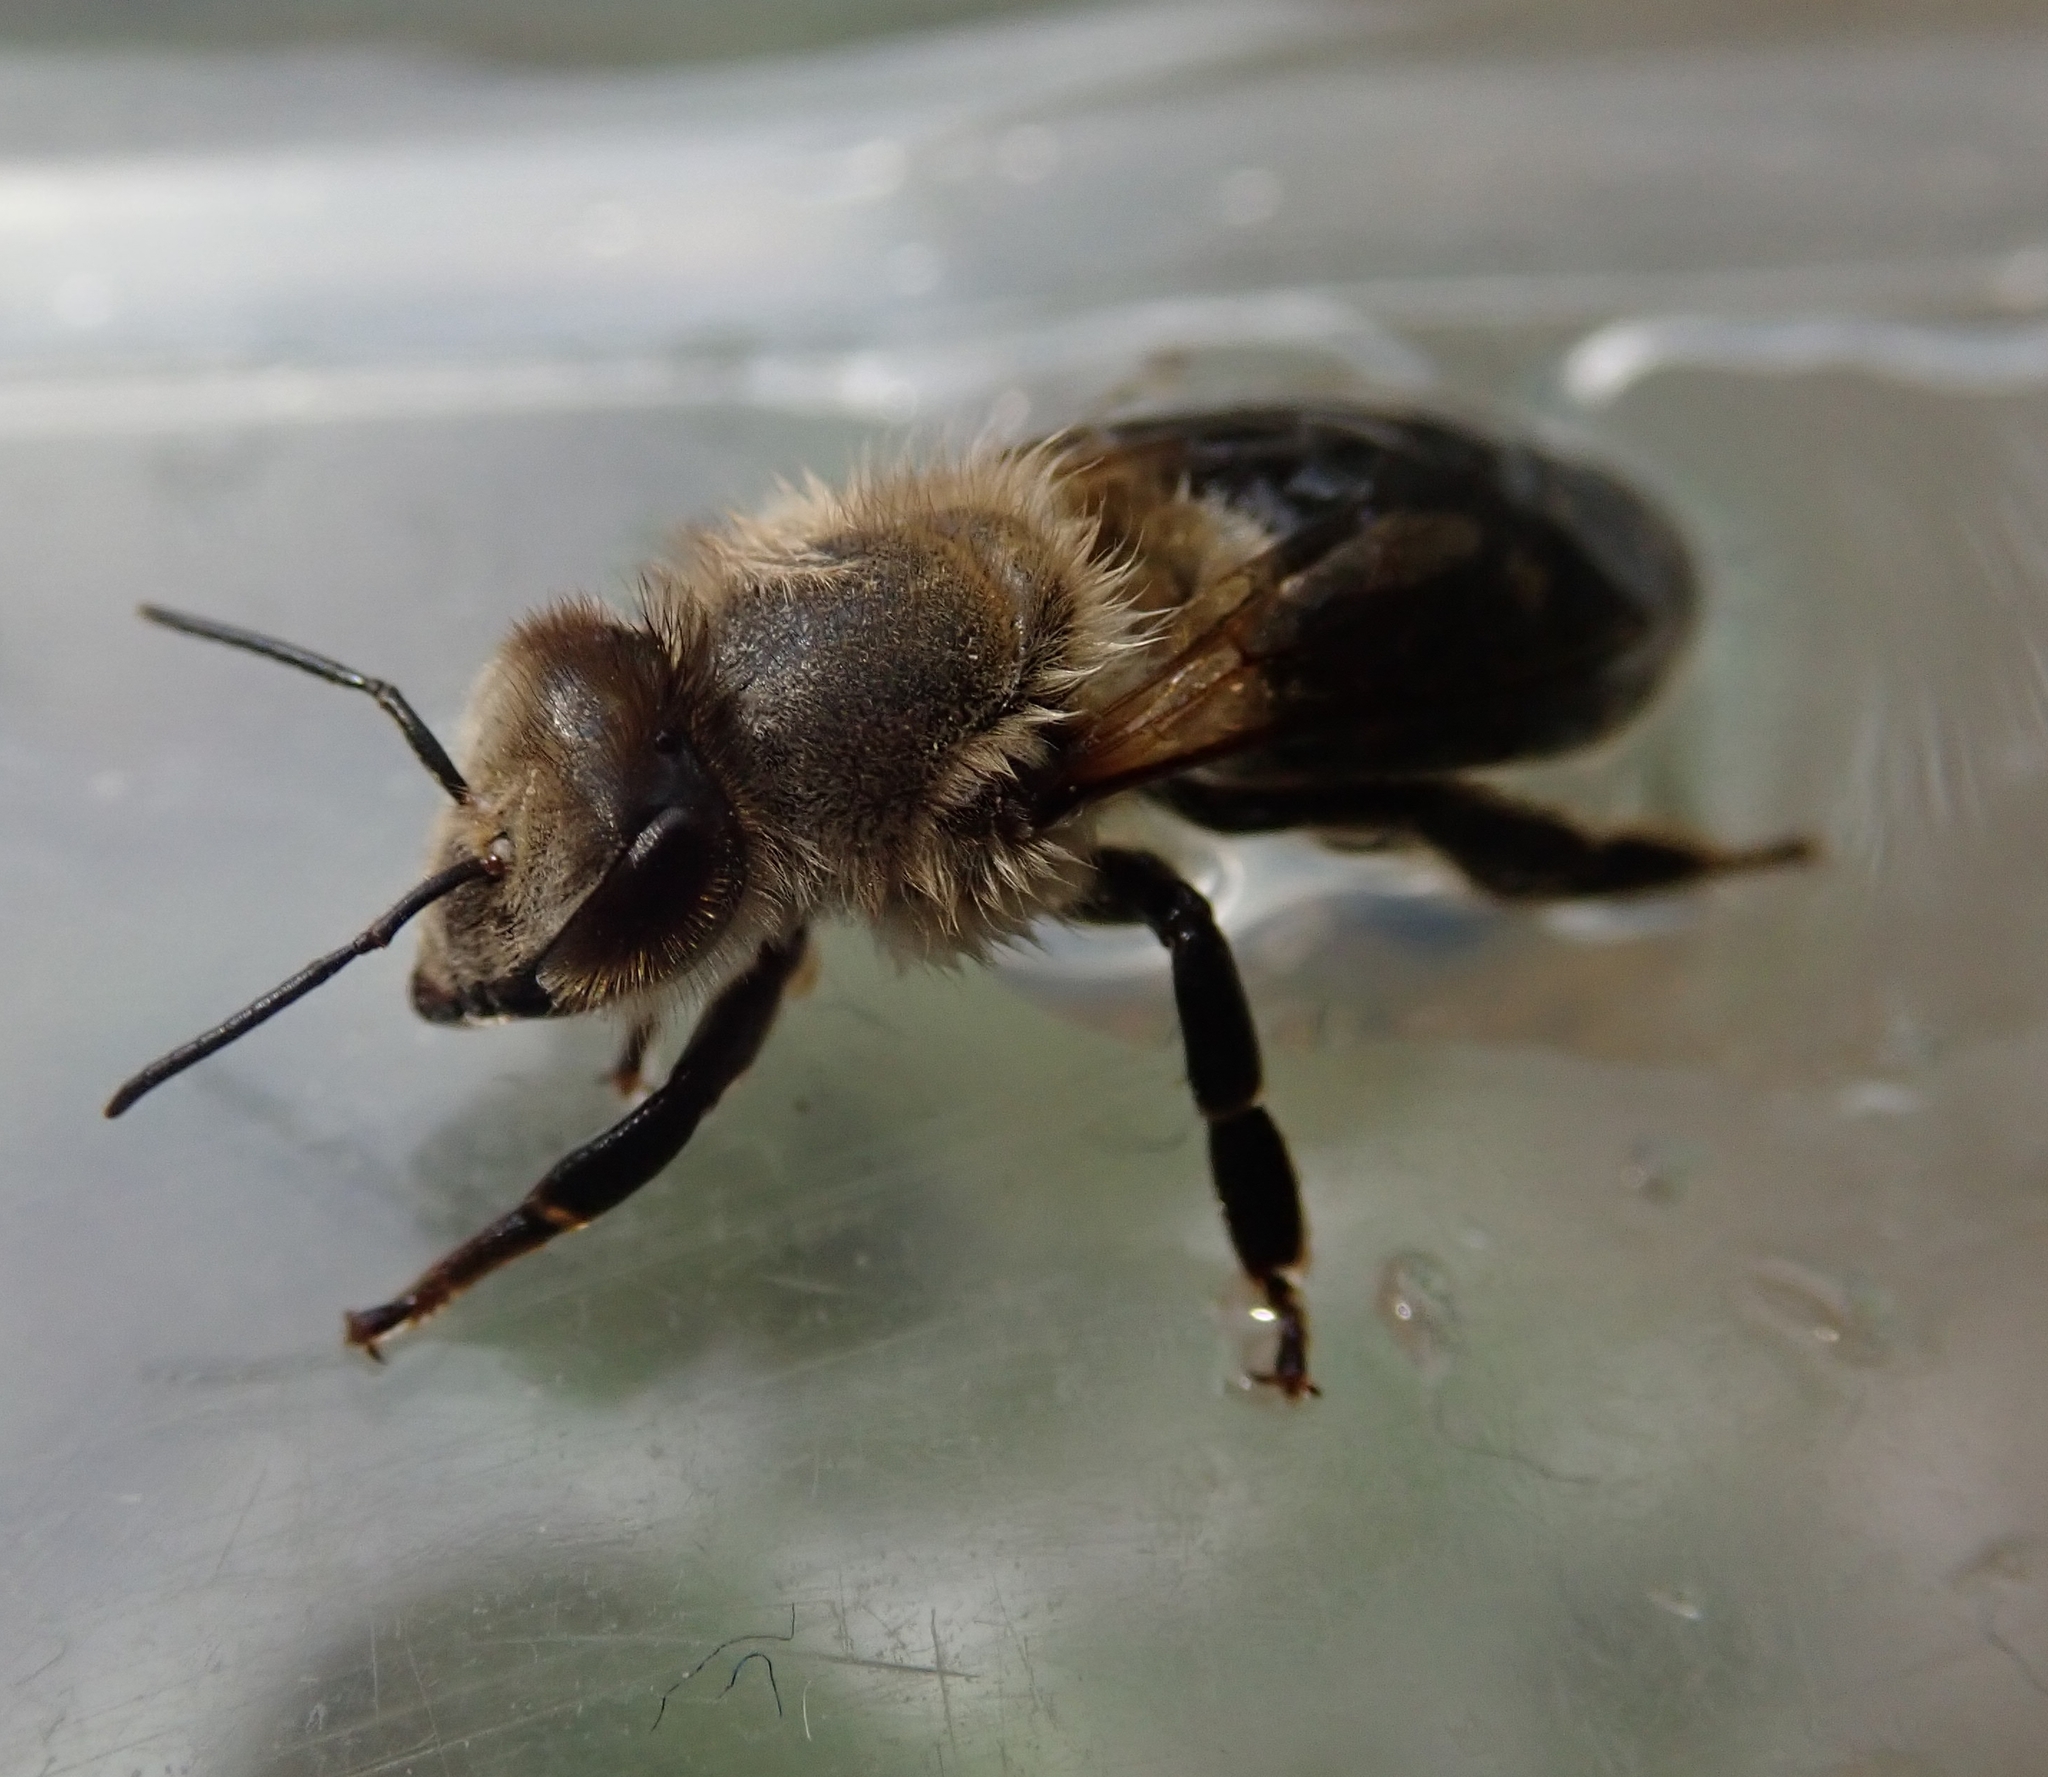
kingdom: Animalia
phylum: Arthropoda
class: Insecta
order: Hymenoptera
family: Apidae
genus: Apis
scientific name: Apis mellifera
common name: Honey bee
